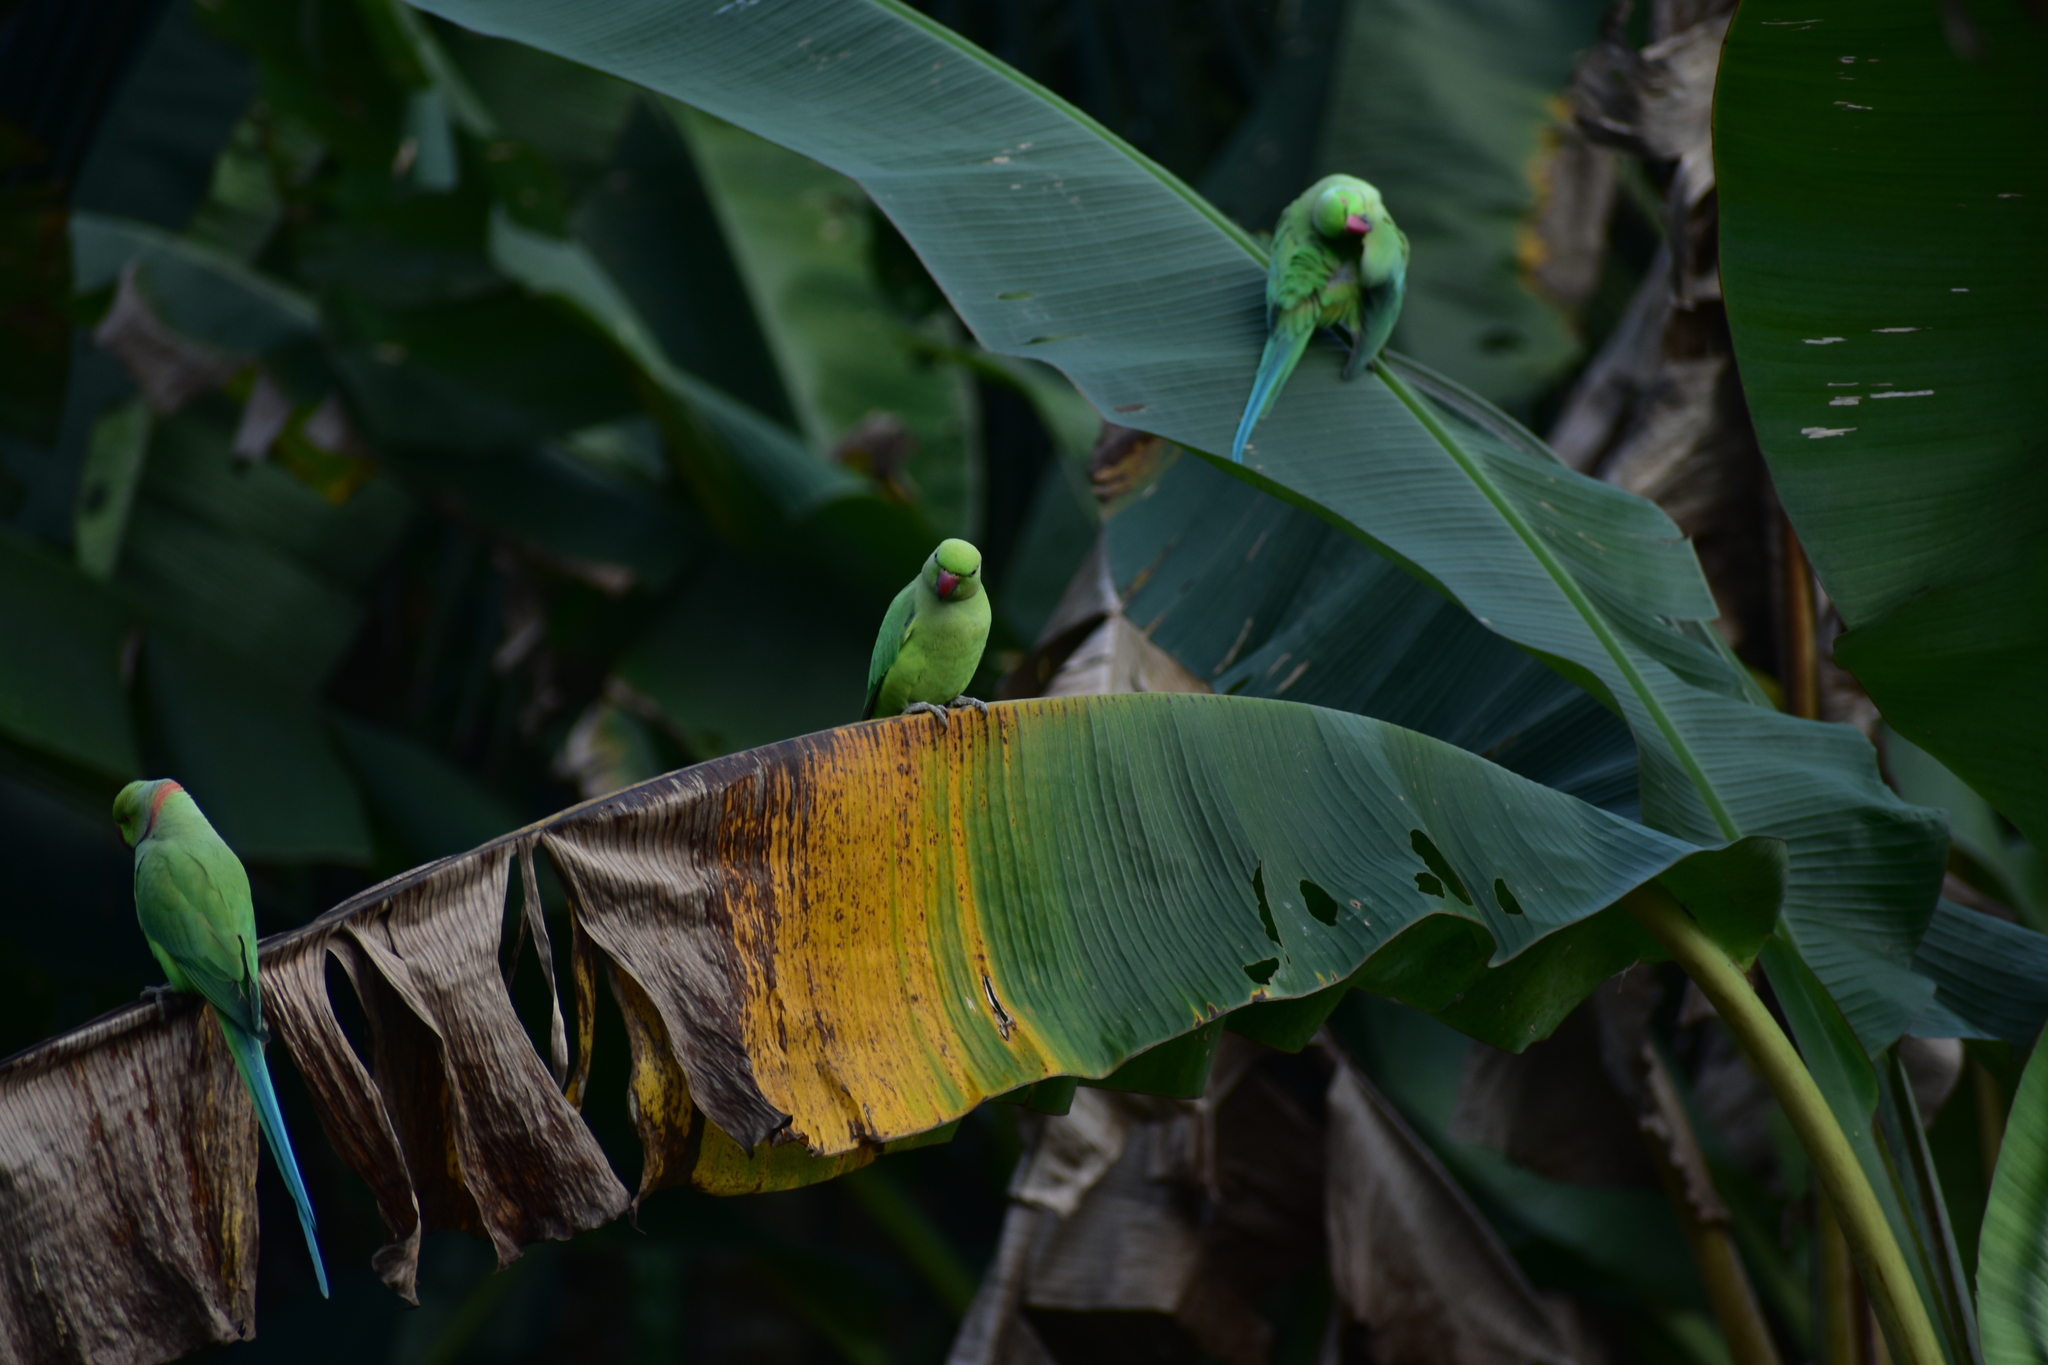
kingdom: Animalia
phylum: Chordata
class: Aves
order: Psittaciformes
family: Psittacidae
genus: Psittacula
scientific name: Psittacula krameri
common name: Rose-ringed parakeet
